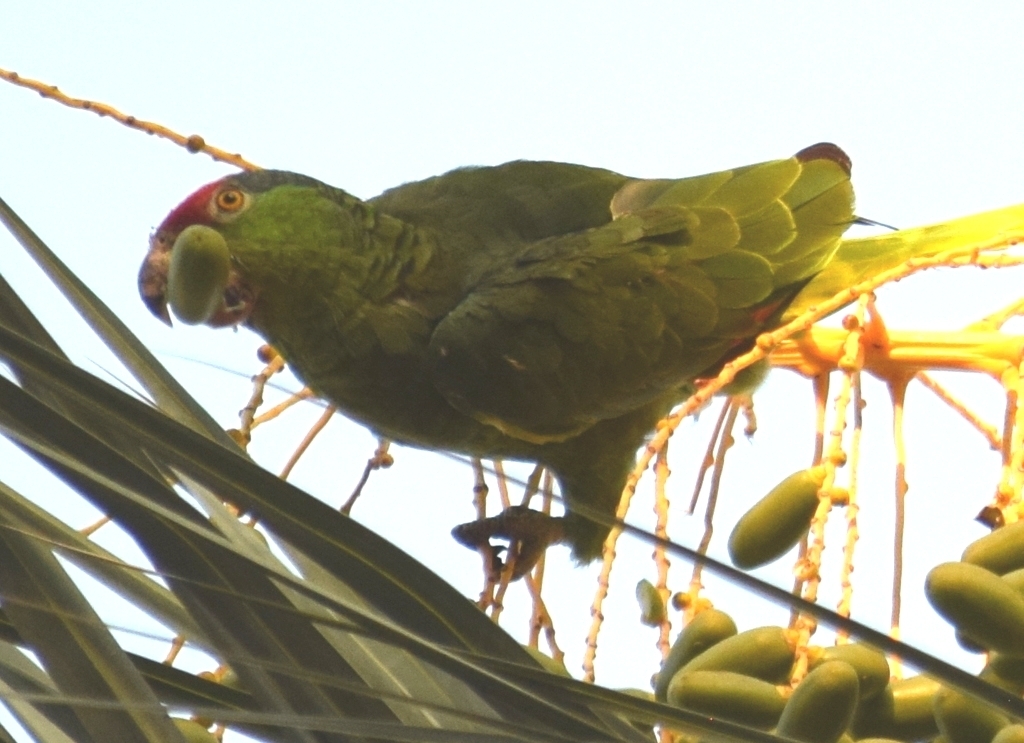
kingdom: Animalia
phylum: Chordata
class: Aves
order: Psittaciformes
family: Psittacidae
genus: Amazona
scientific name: Amazona viridigenalis
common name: Red-crowned amazon
